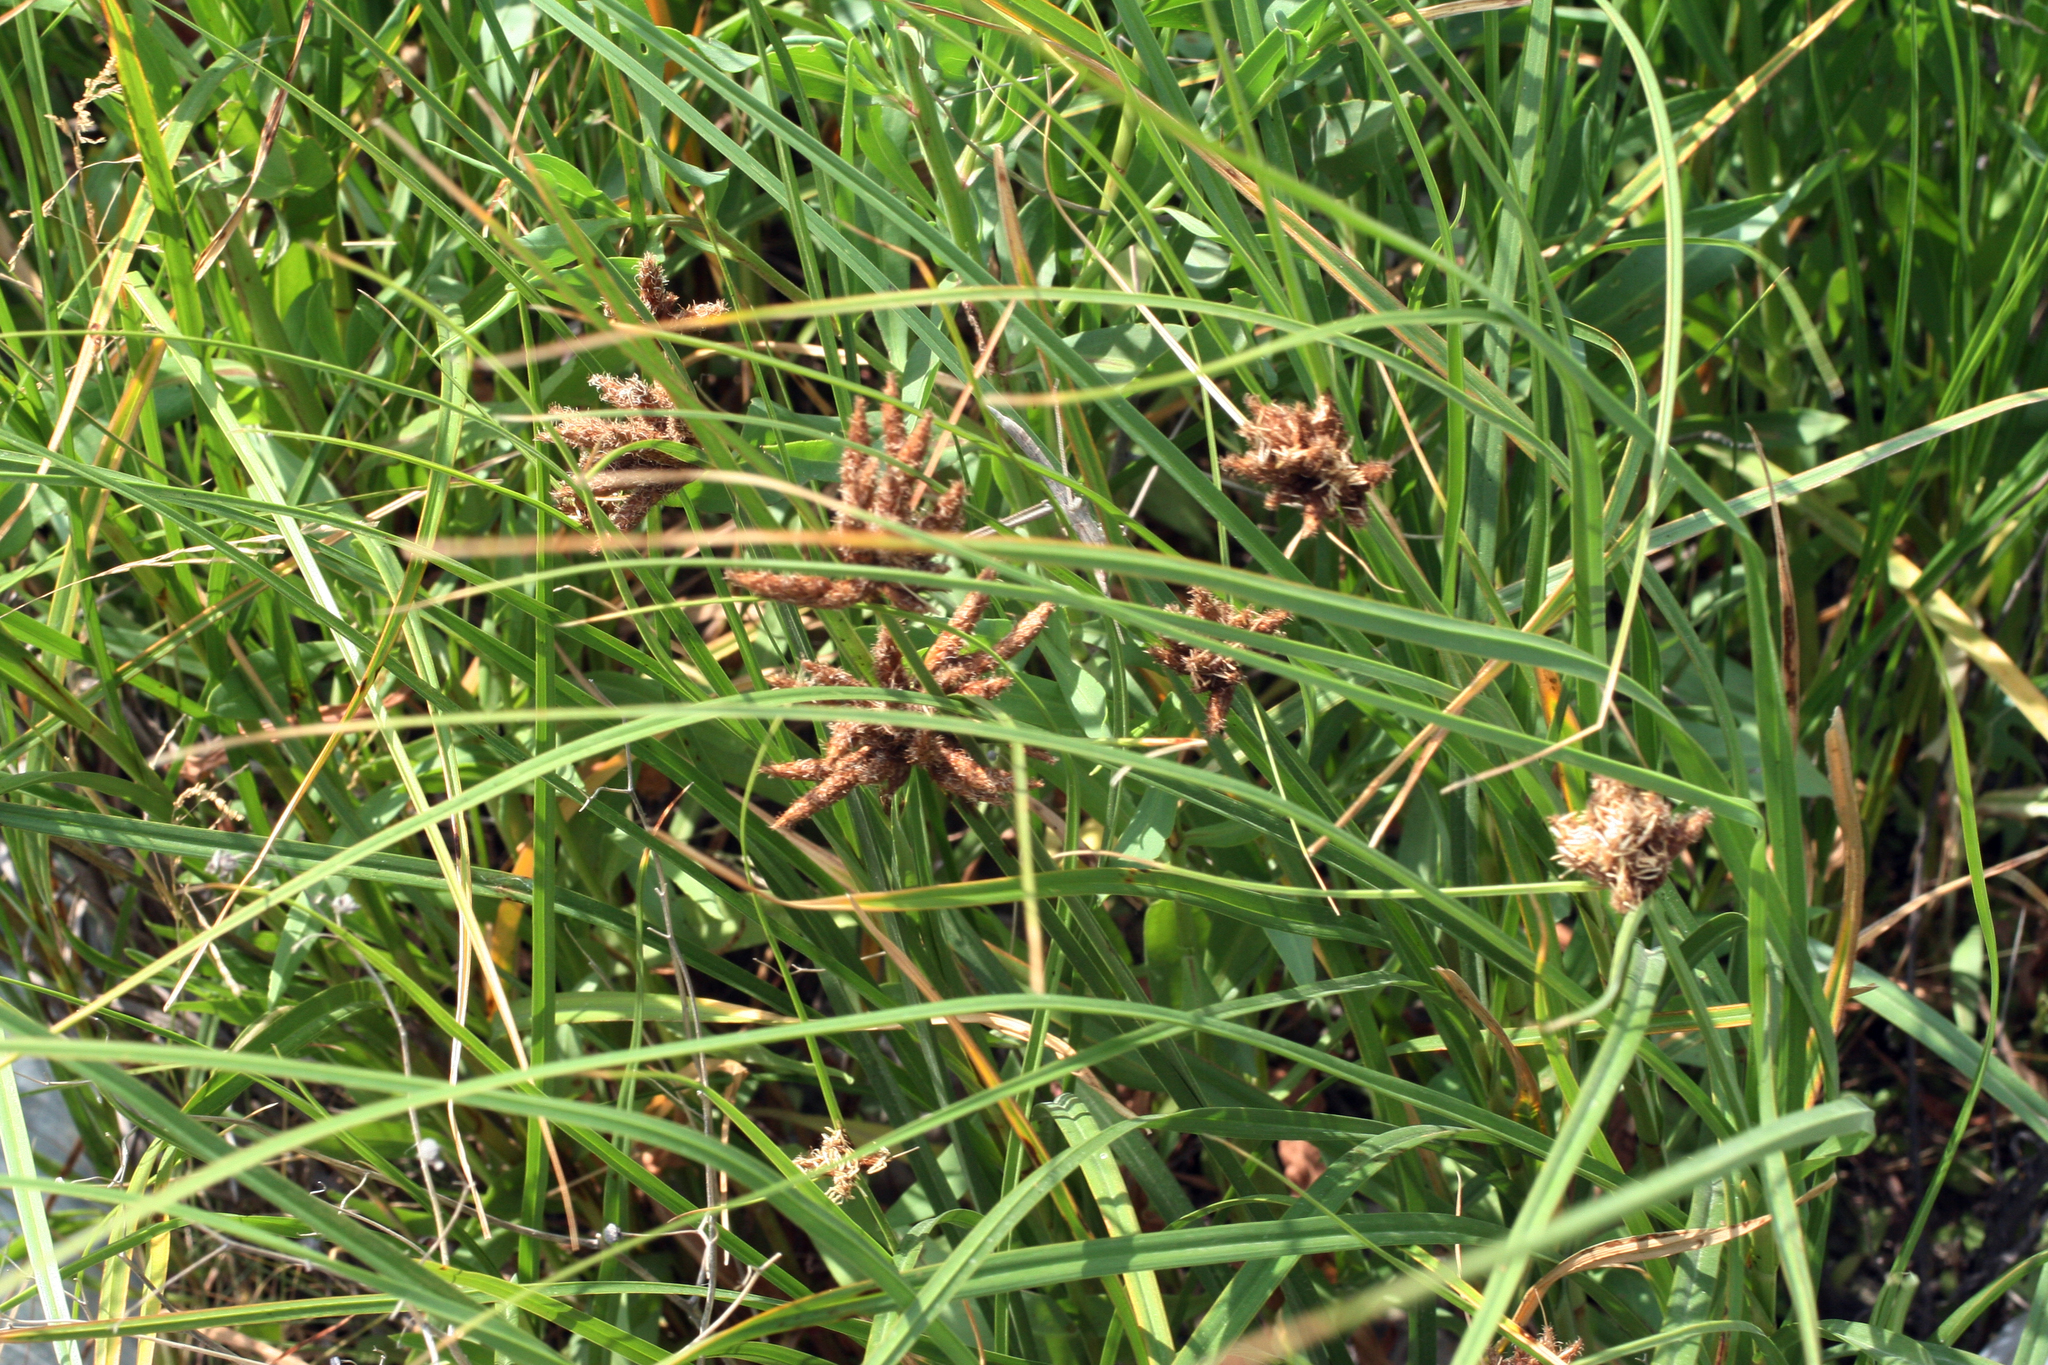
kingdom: Plantae
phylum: Tracheophyta
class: Liliopsida
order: Poales
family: Cyperaceae
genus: Bolboschoenus
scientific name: Bolboschoenus maritimus
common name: Sea club-rush
